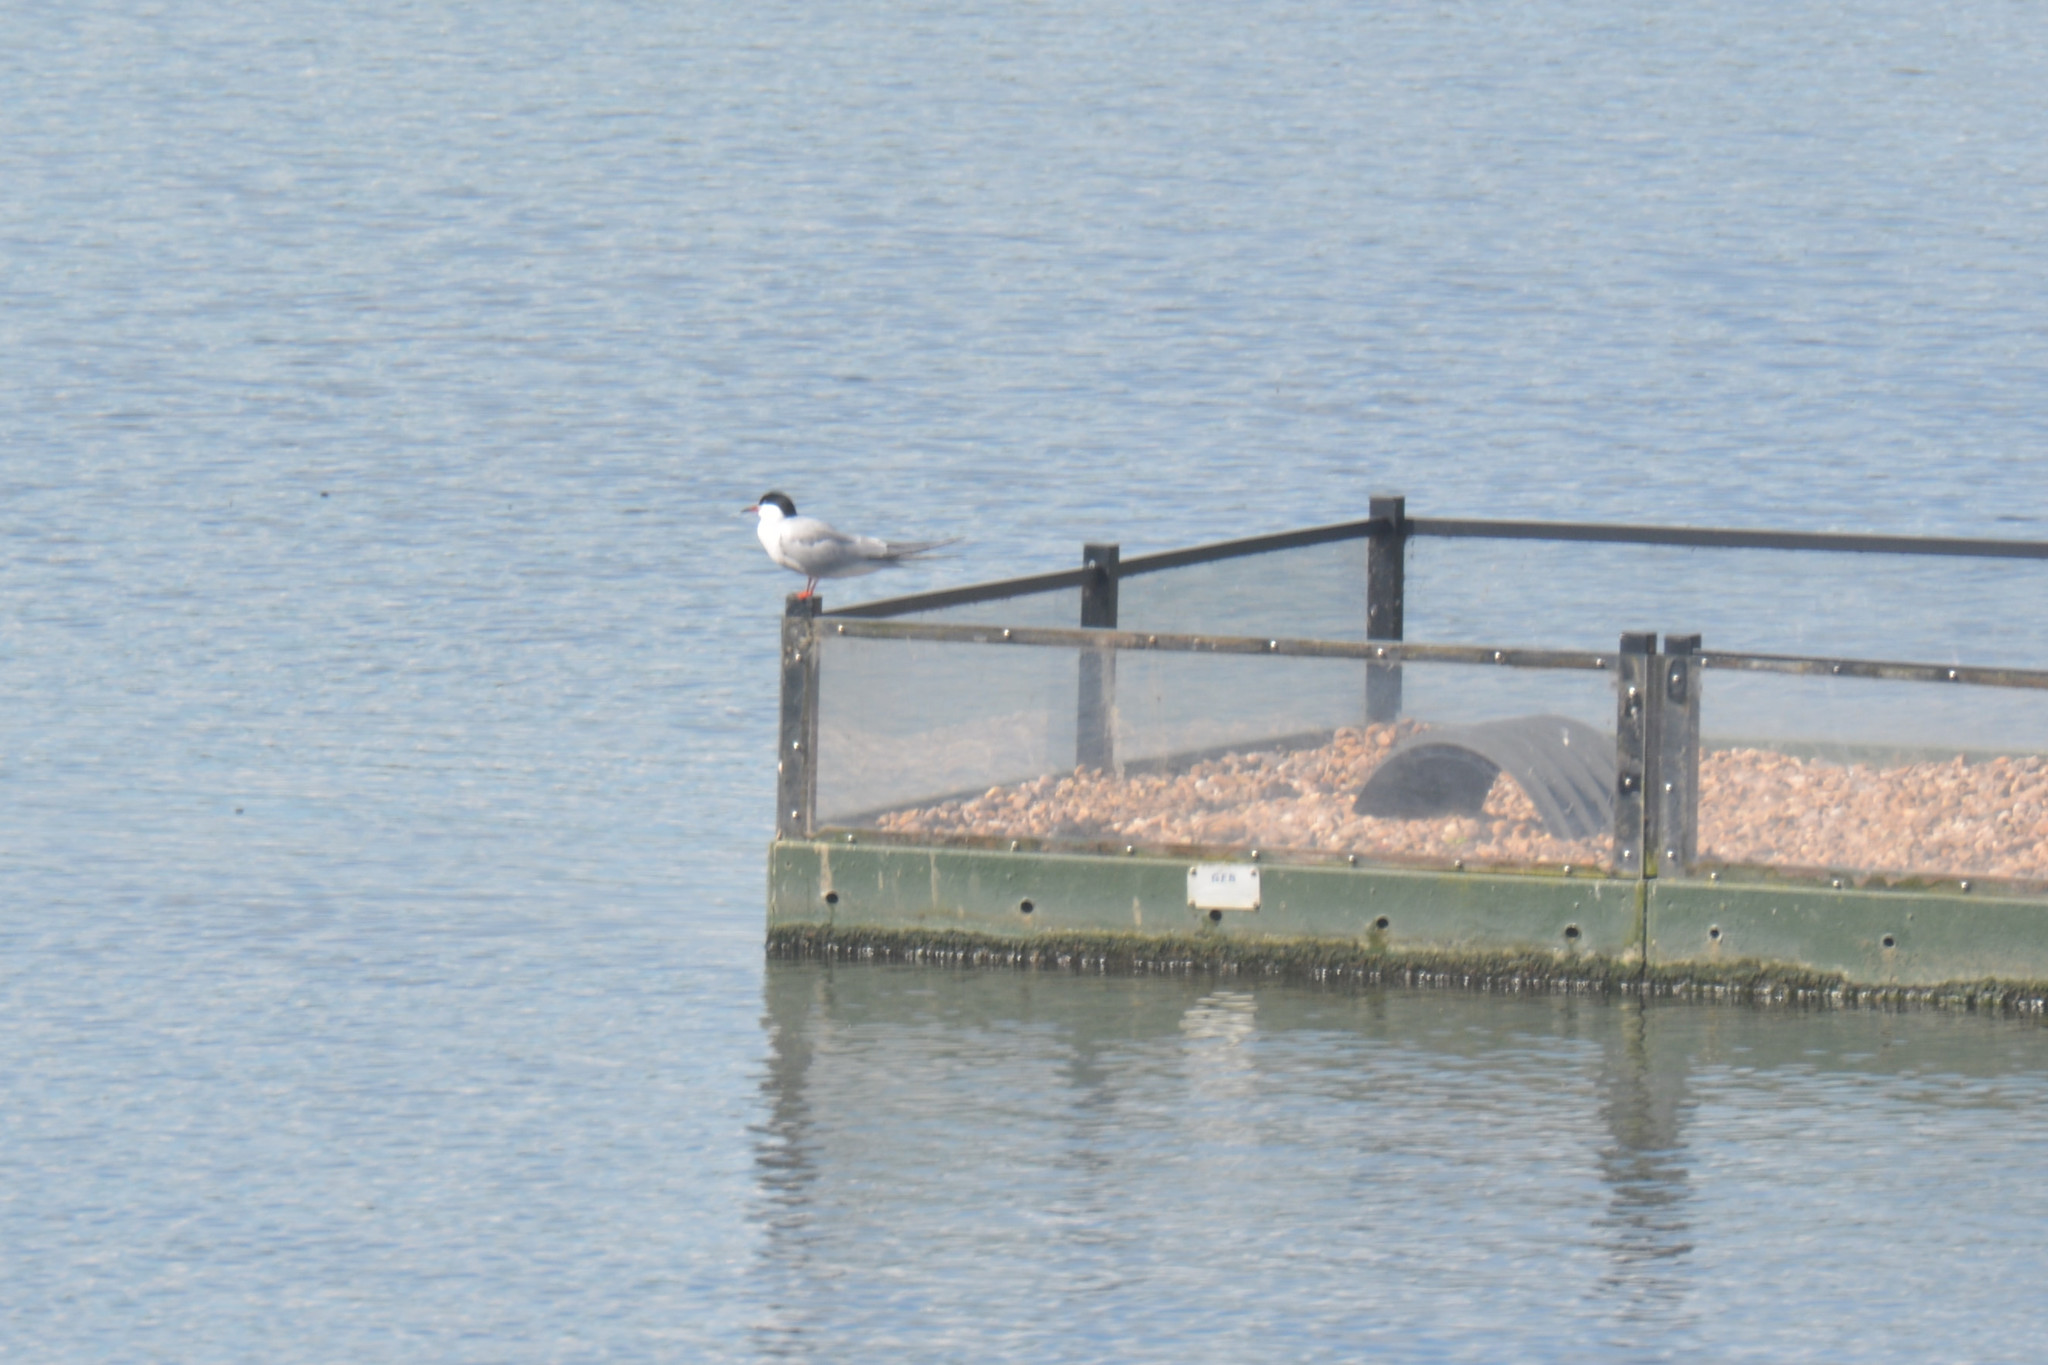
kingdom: Animalia
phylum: Chordata
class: Aves
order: Charadriiformes
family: Laridae
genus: Sterna
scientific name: Sterna hirundo
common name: Common tern
